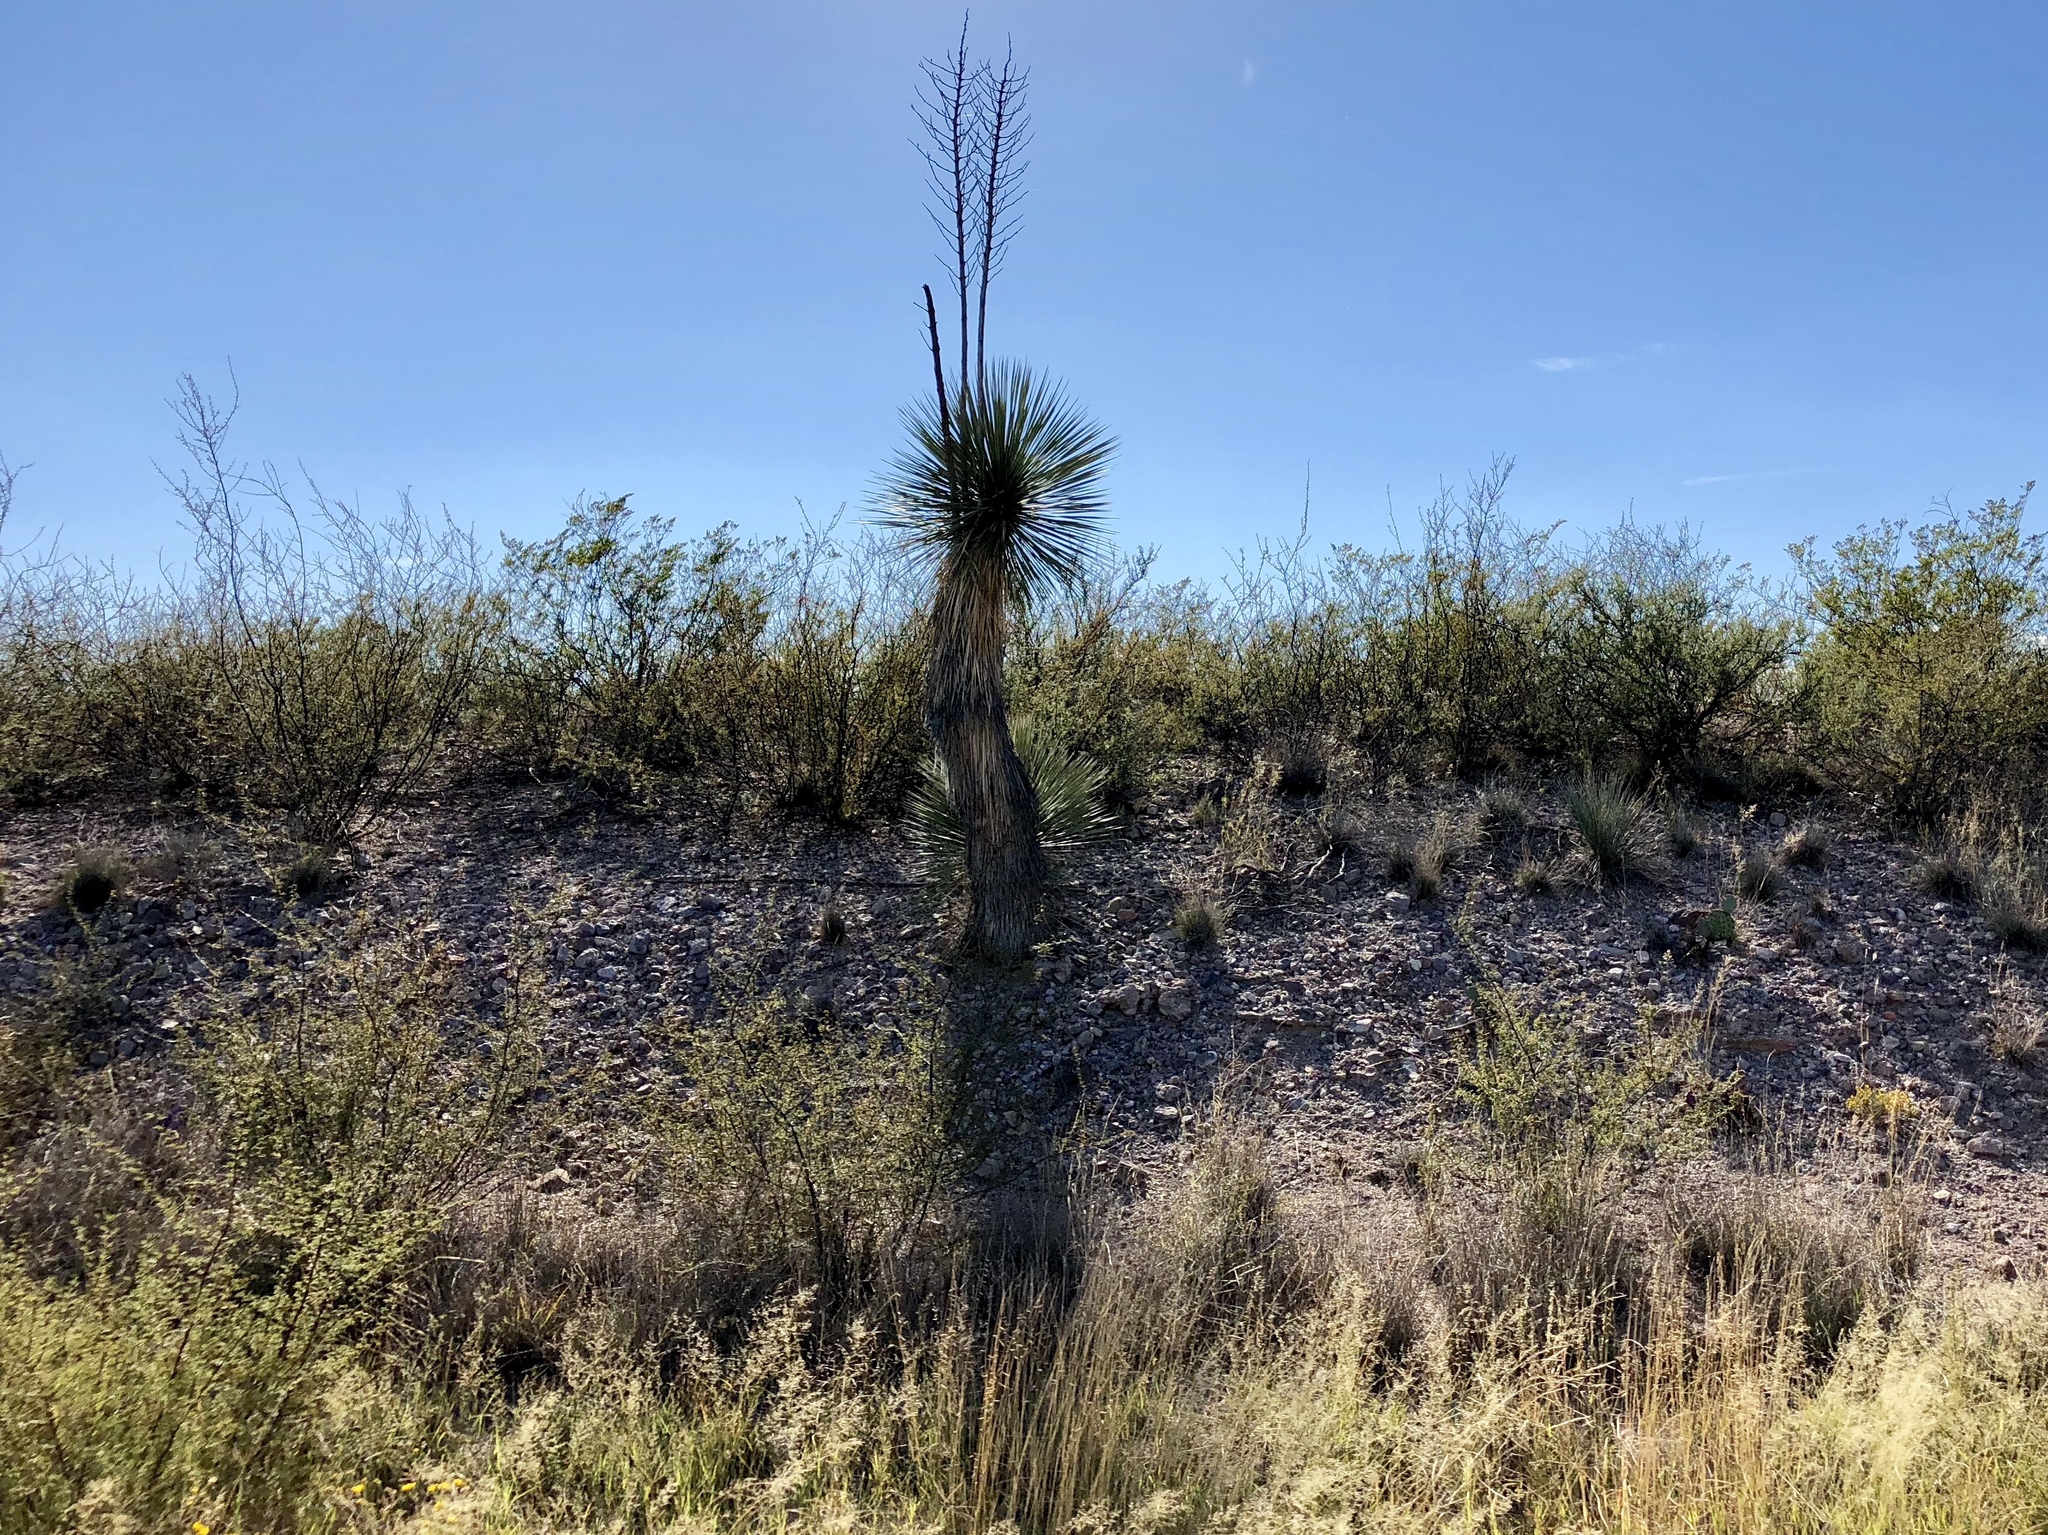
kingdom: Plantae
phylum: Tracheophyta
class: Liliopsida
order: Asparagales
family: Asparagaceae
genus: Yucca
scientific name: Yucca elata
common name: Palmella
